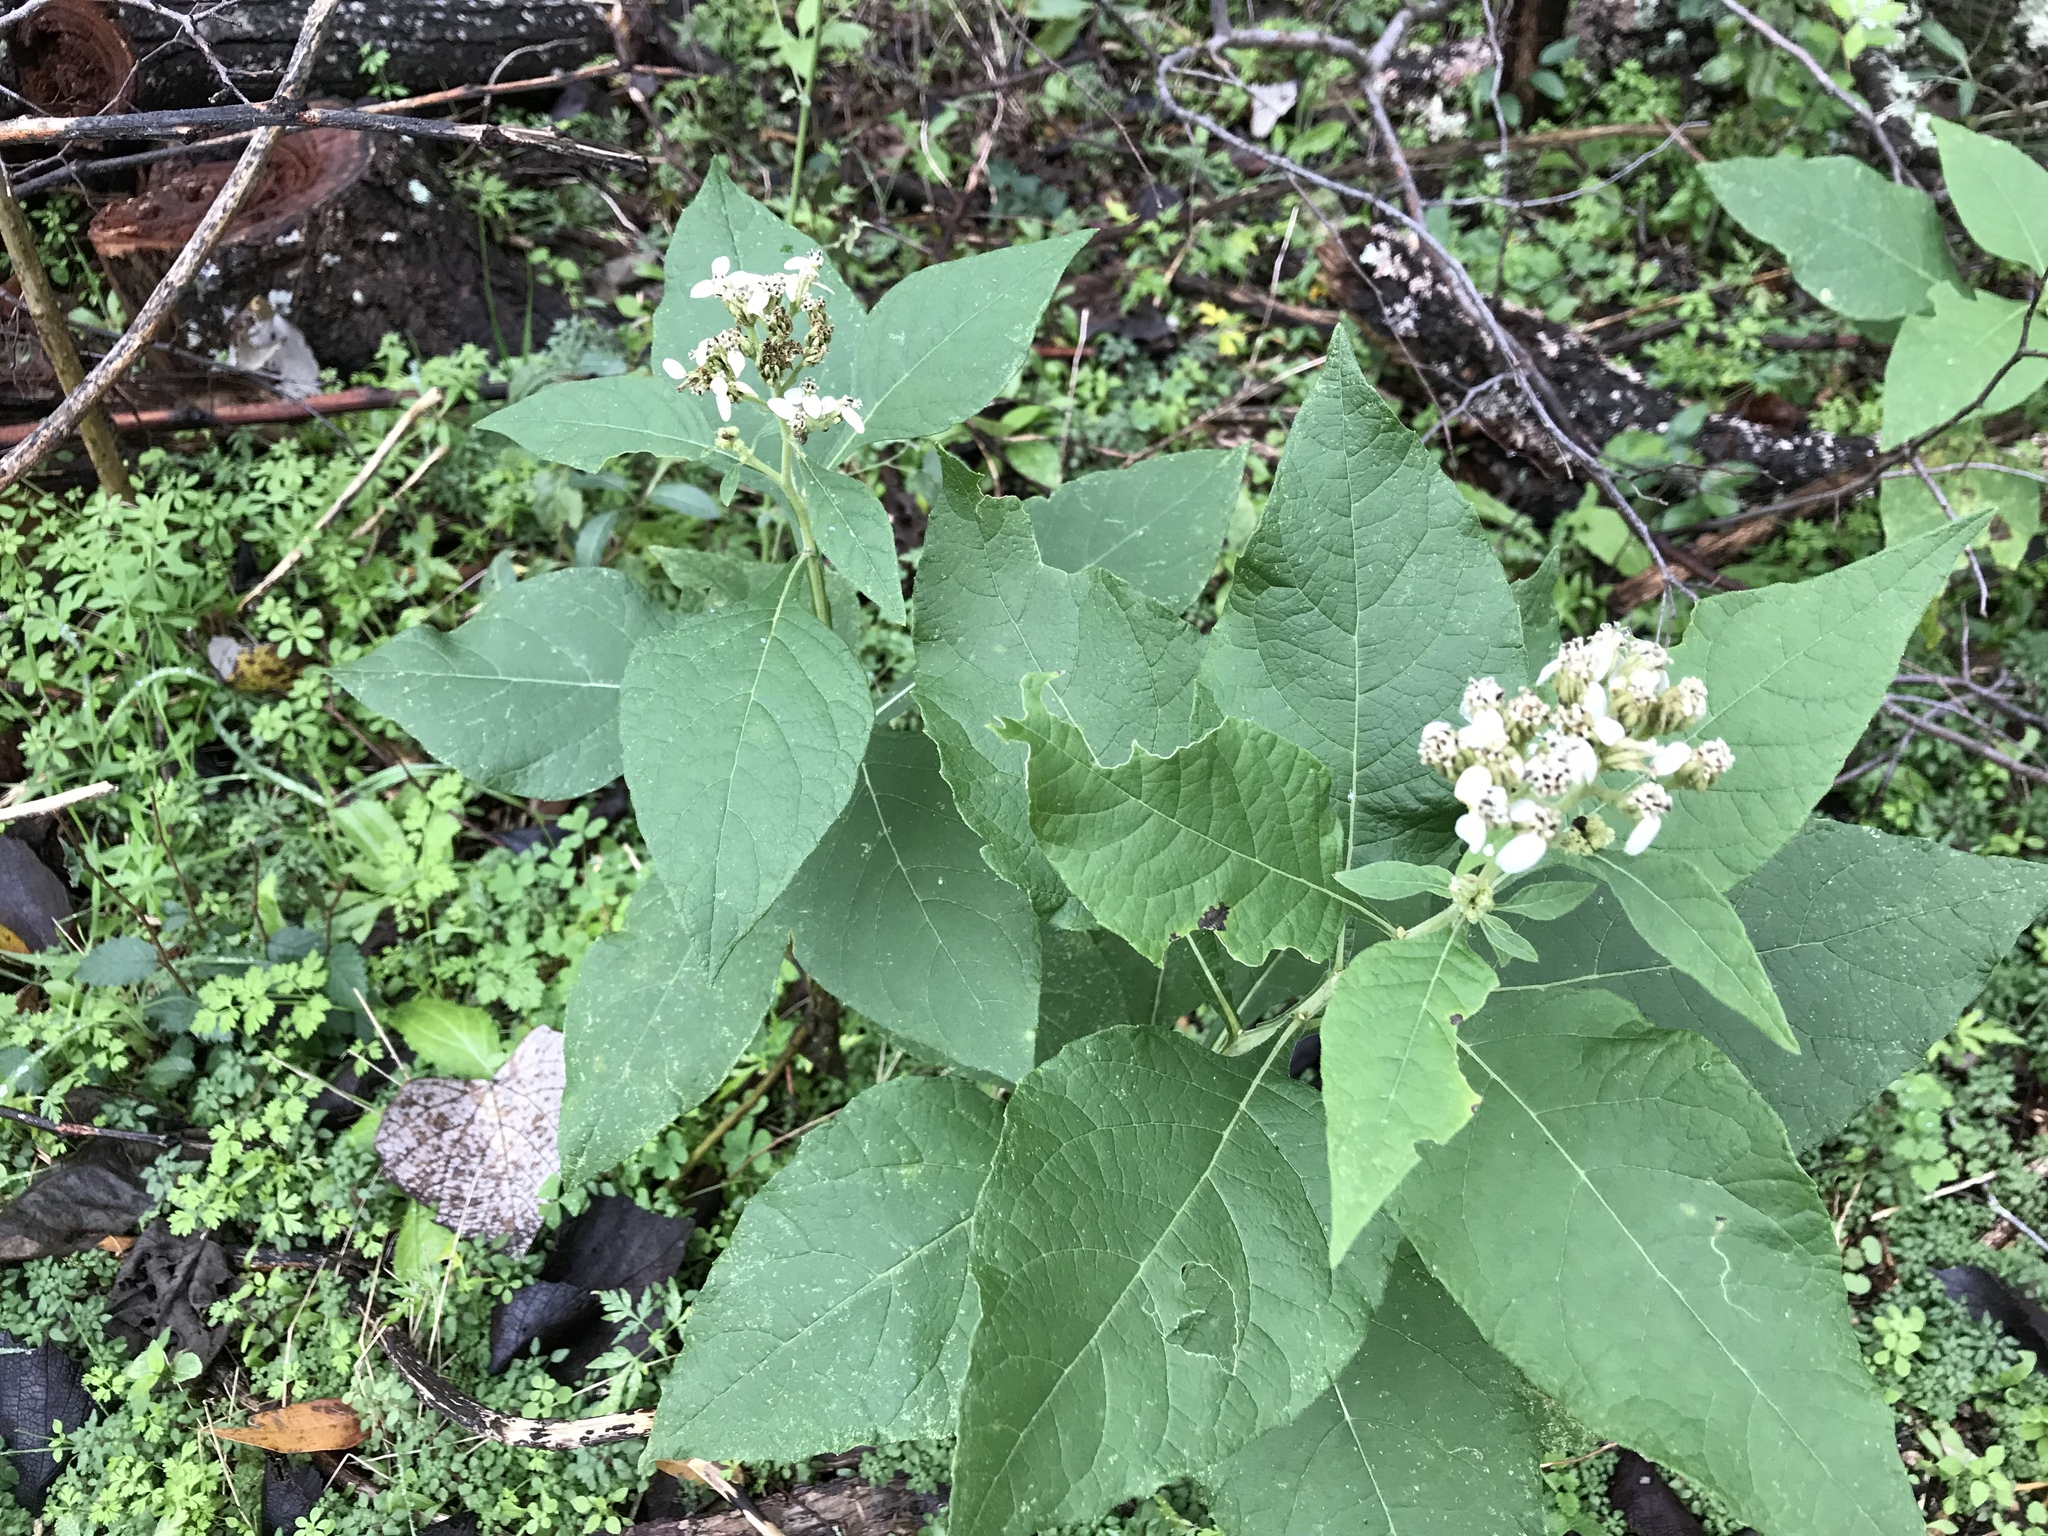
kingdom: Plantae
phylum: Tracheophyta
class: Magnoliopsida
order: Asterales
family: Asteraceae
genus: Verbesina
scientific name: Verbesina virginica
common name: Frostweed
